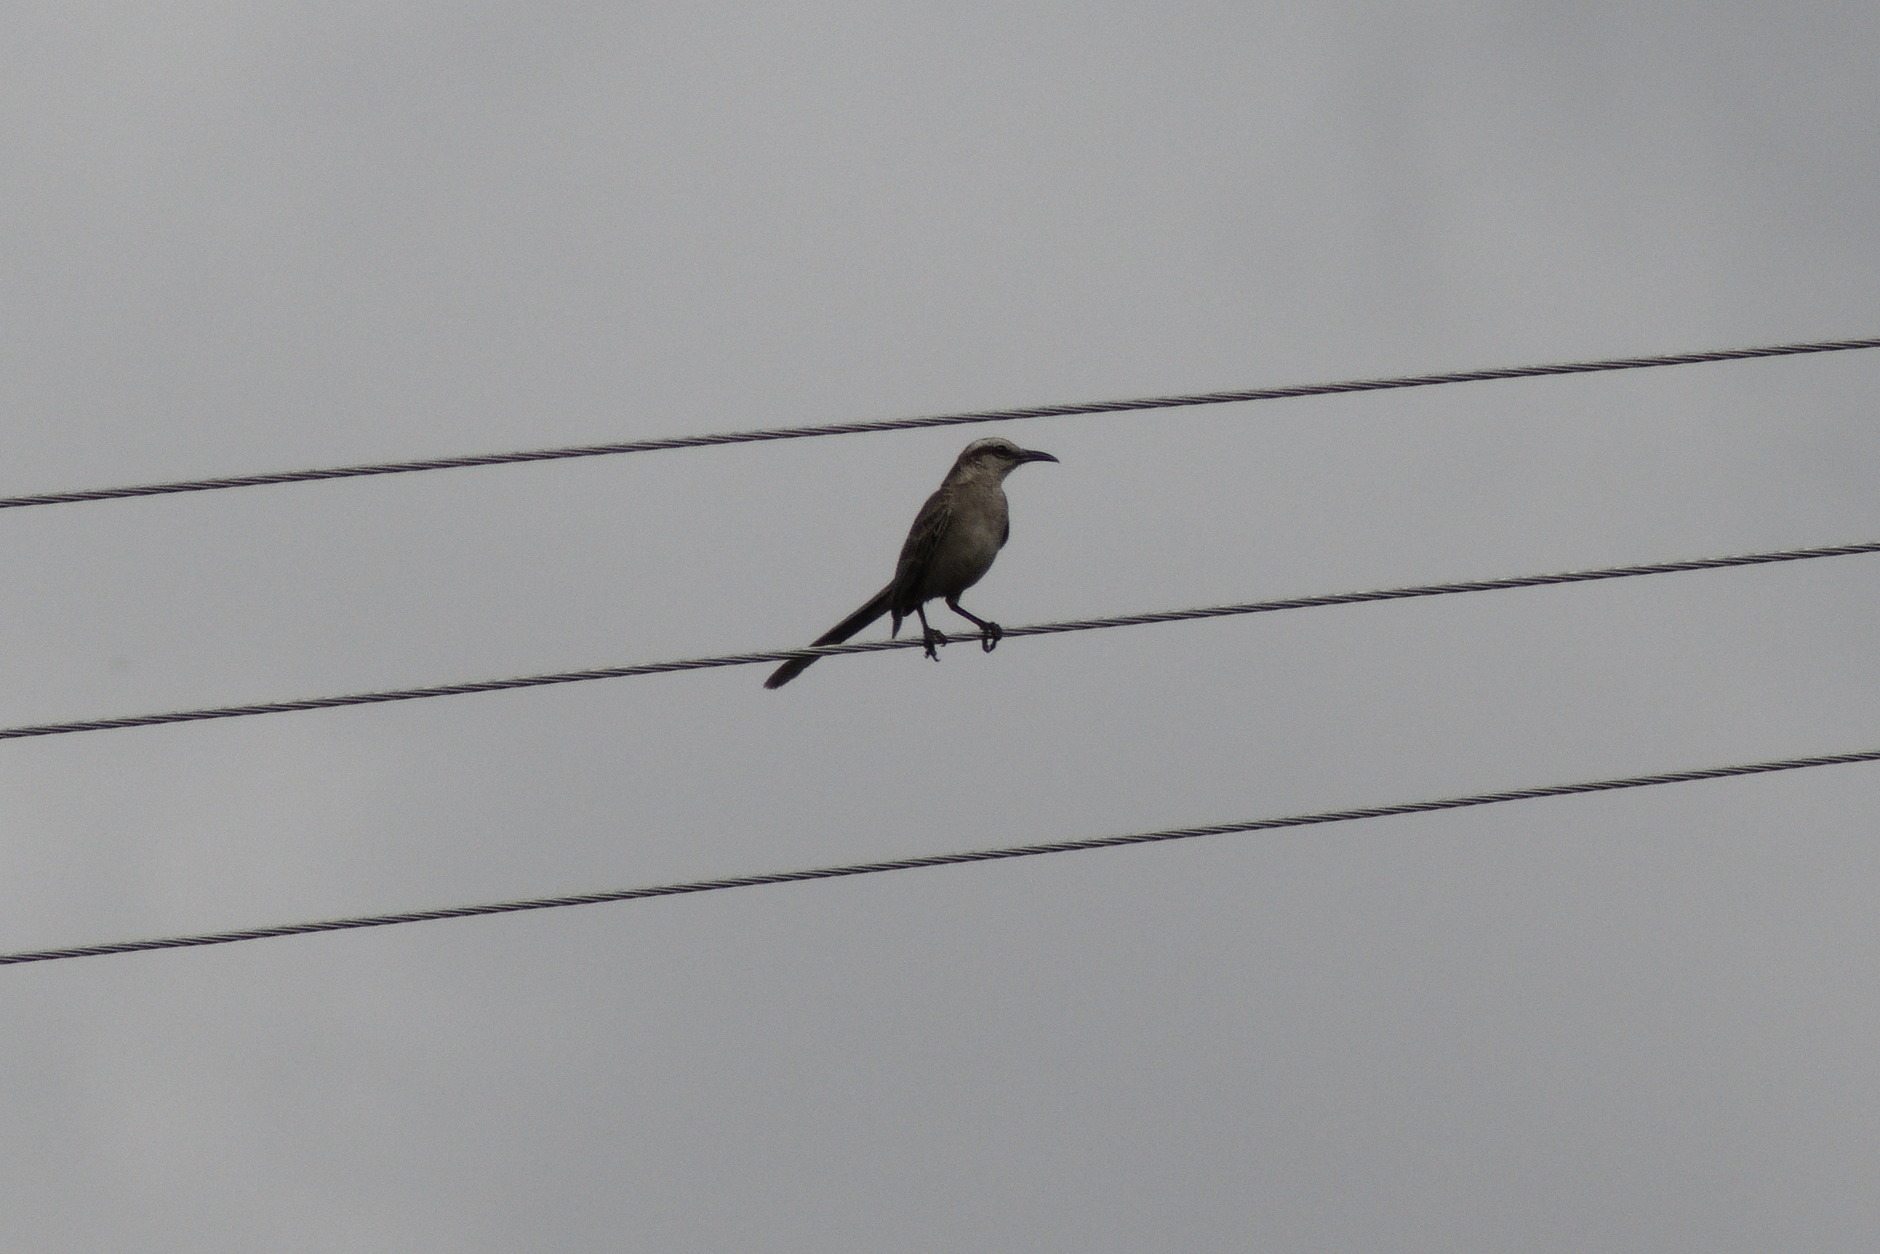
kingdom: Animalia
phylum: Chordata
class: Aves
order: Passeriformes
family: Mimidae
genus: Mimus
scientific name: Mimus saturninus
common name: Chalk-browed mockingbird
